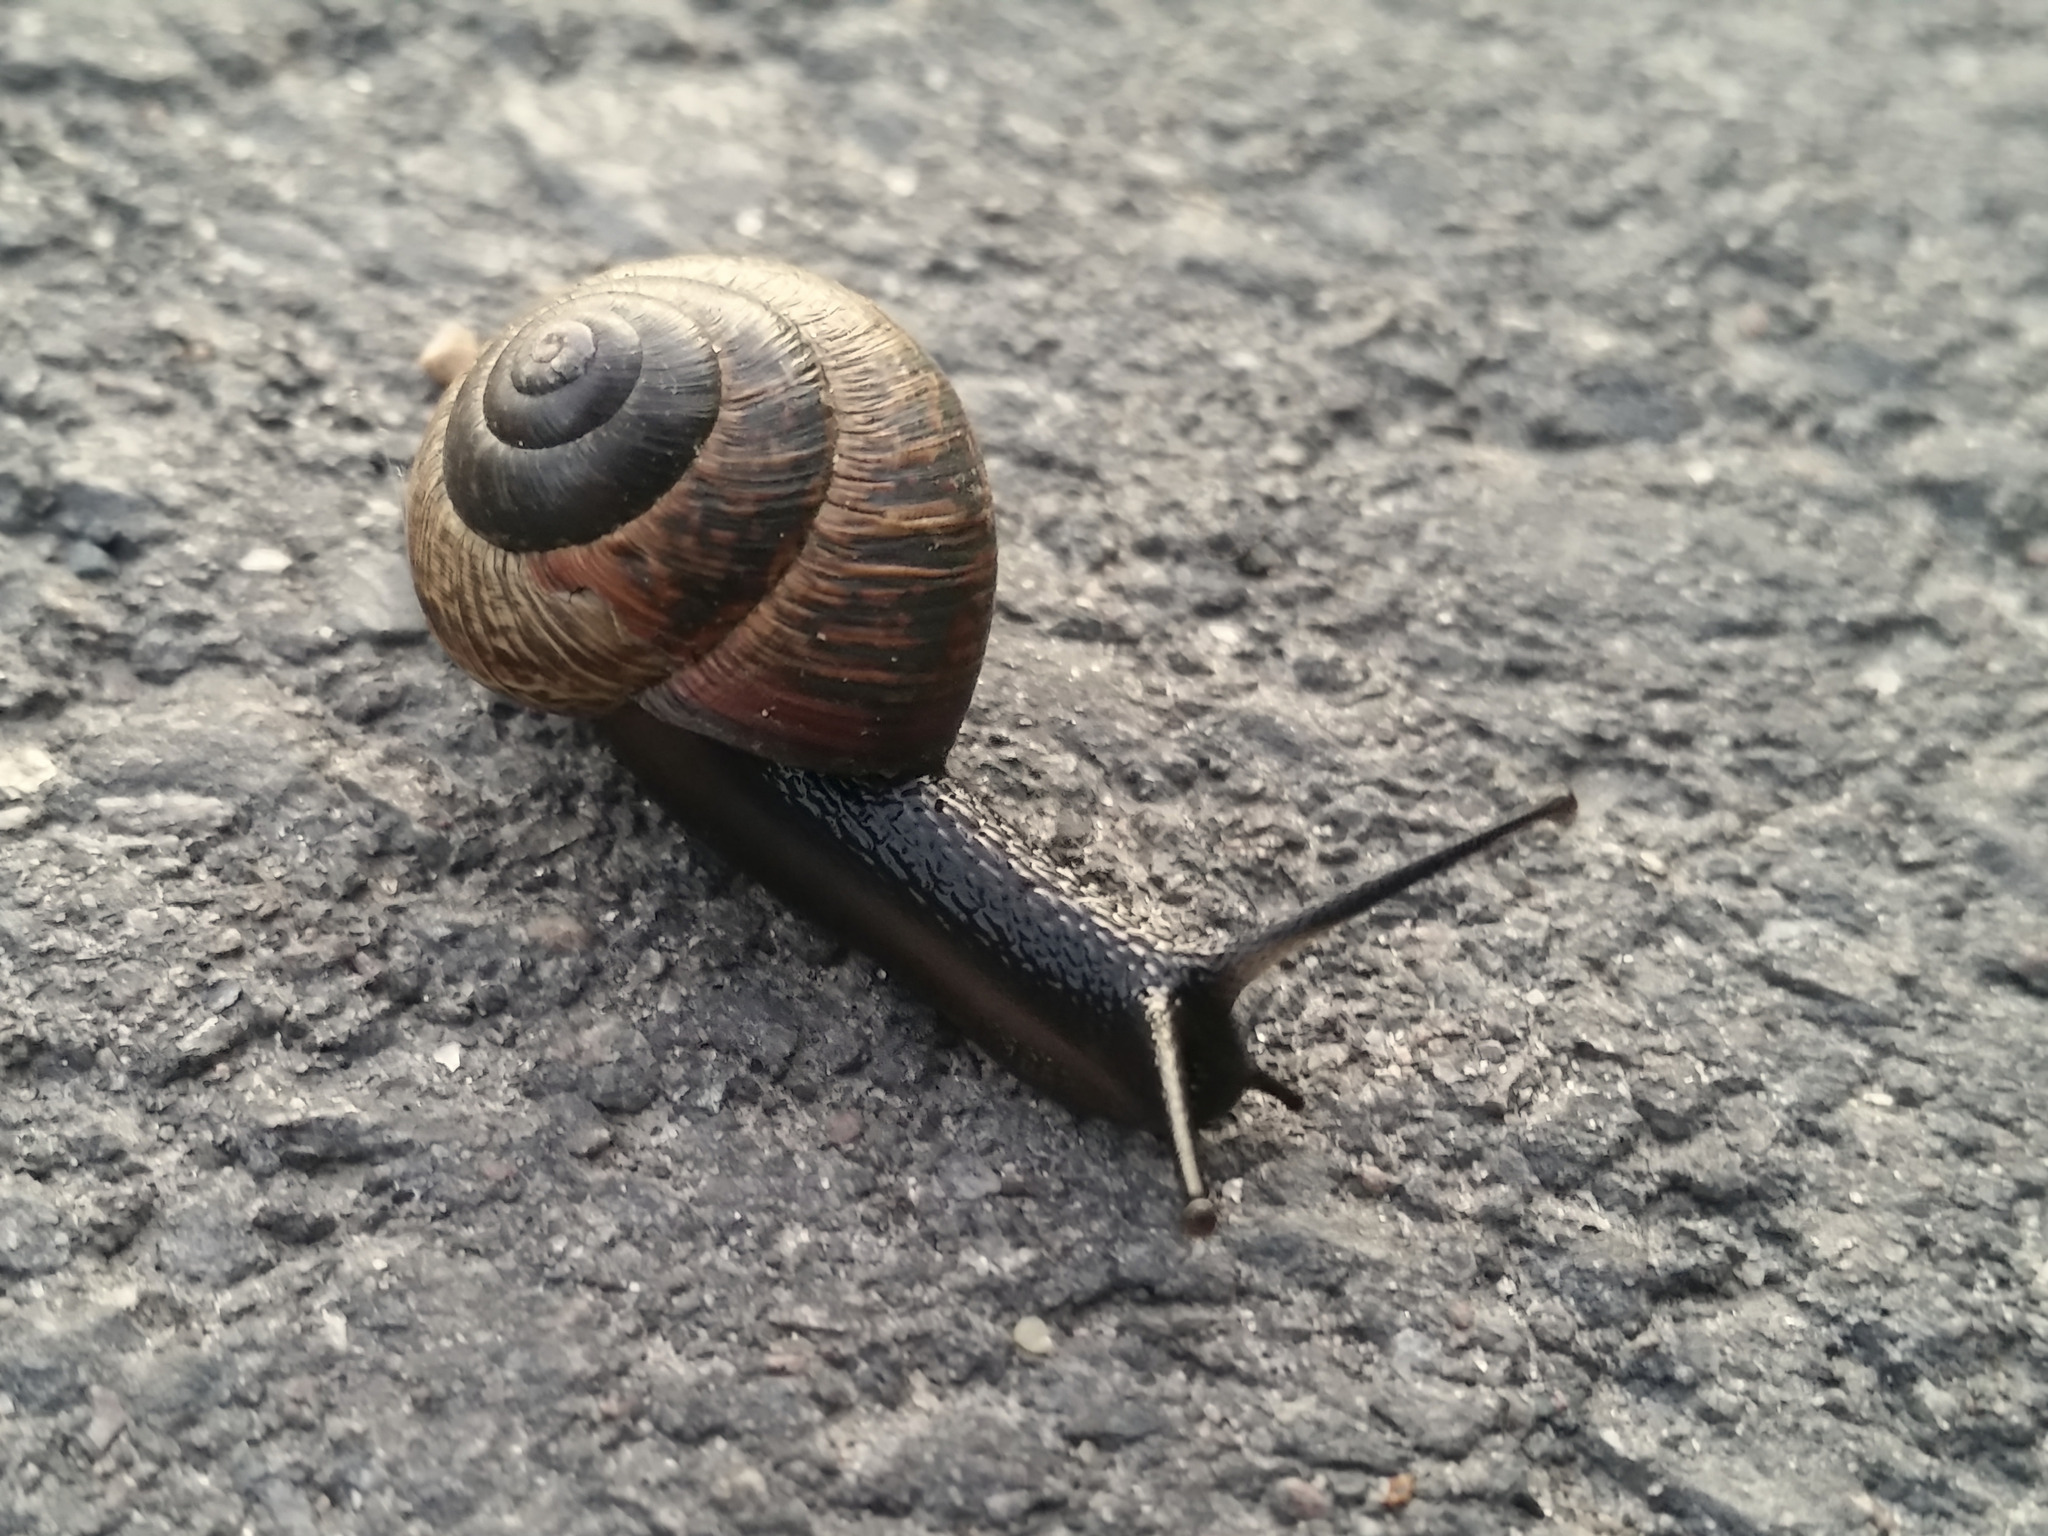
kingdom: Animalia
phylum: Mollusca
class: Gastropoda
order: Stylommatophora
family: Helicidae
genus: Arianta
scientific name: Arianta arbustorum
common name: Copse snail
